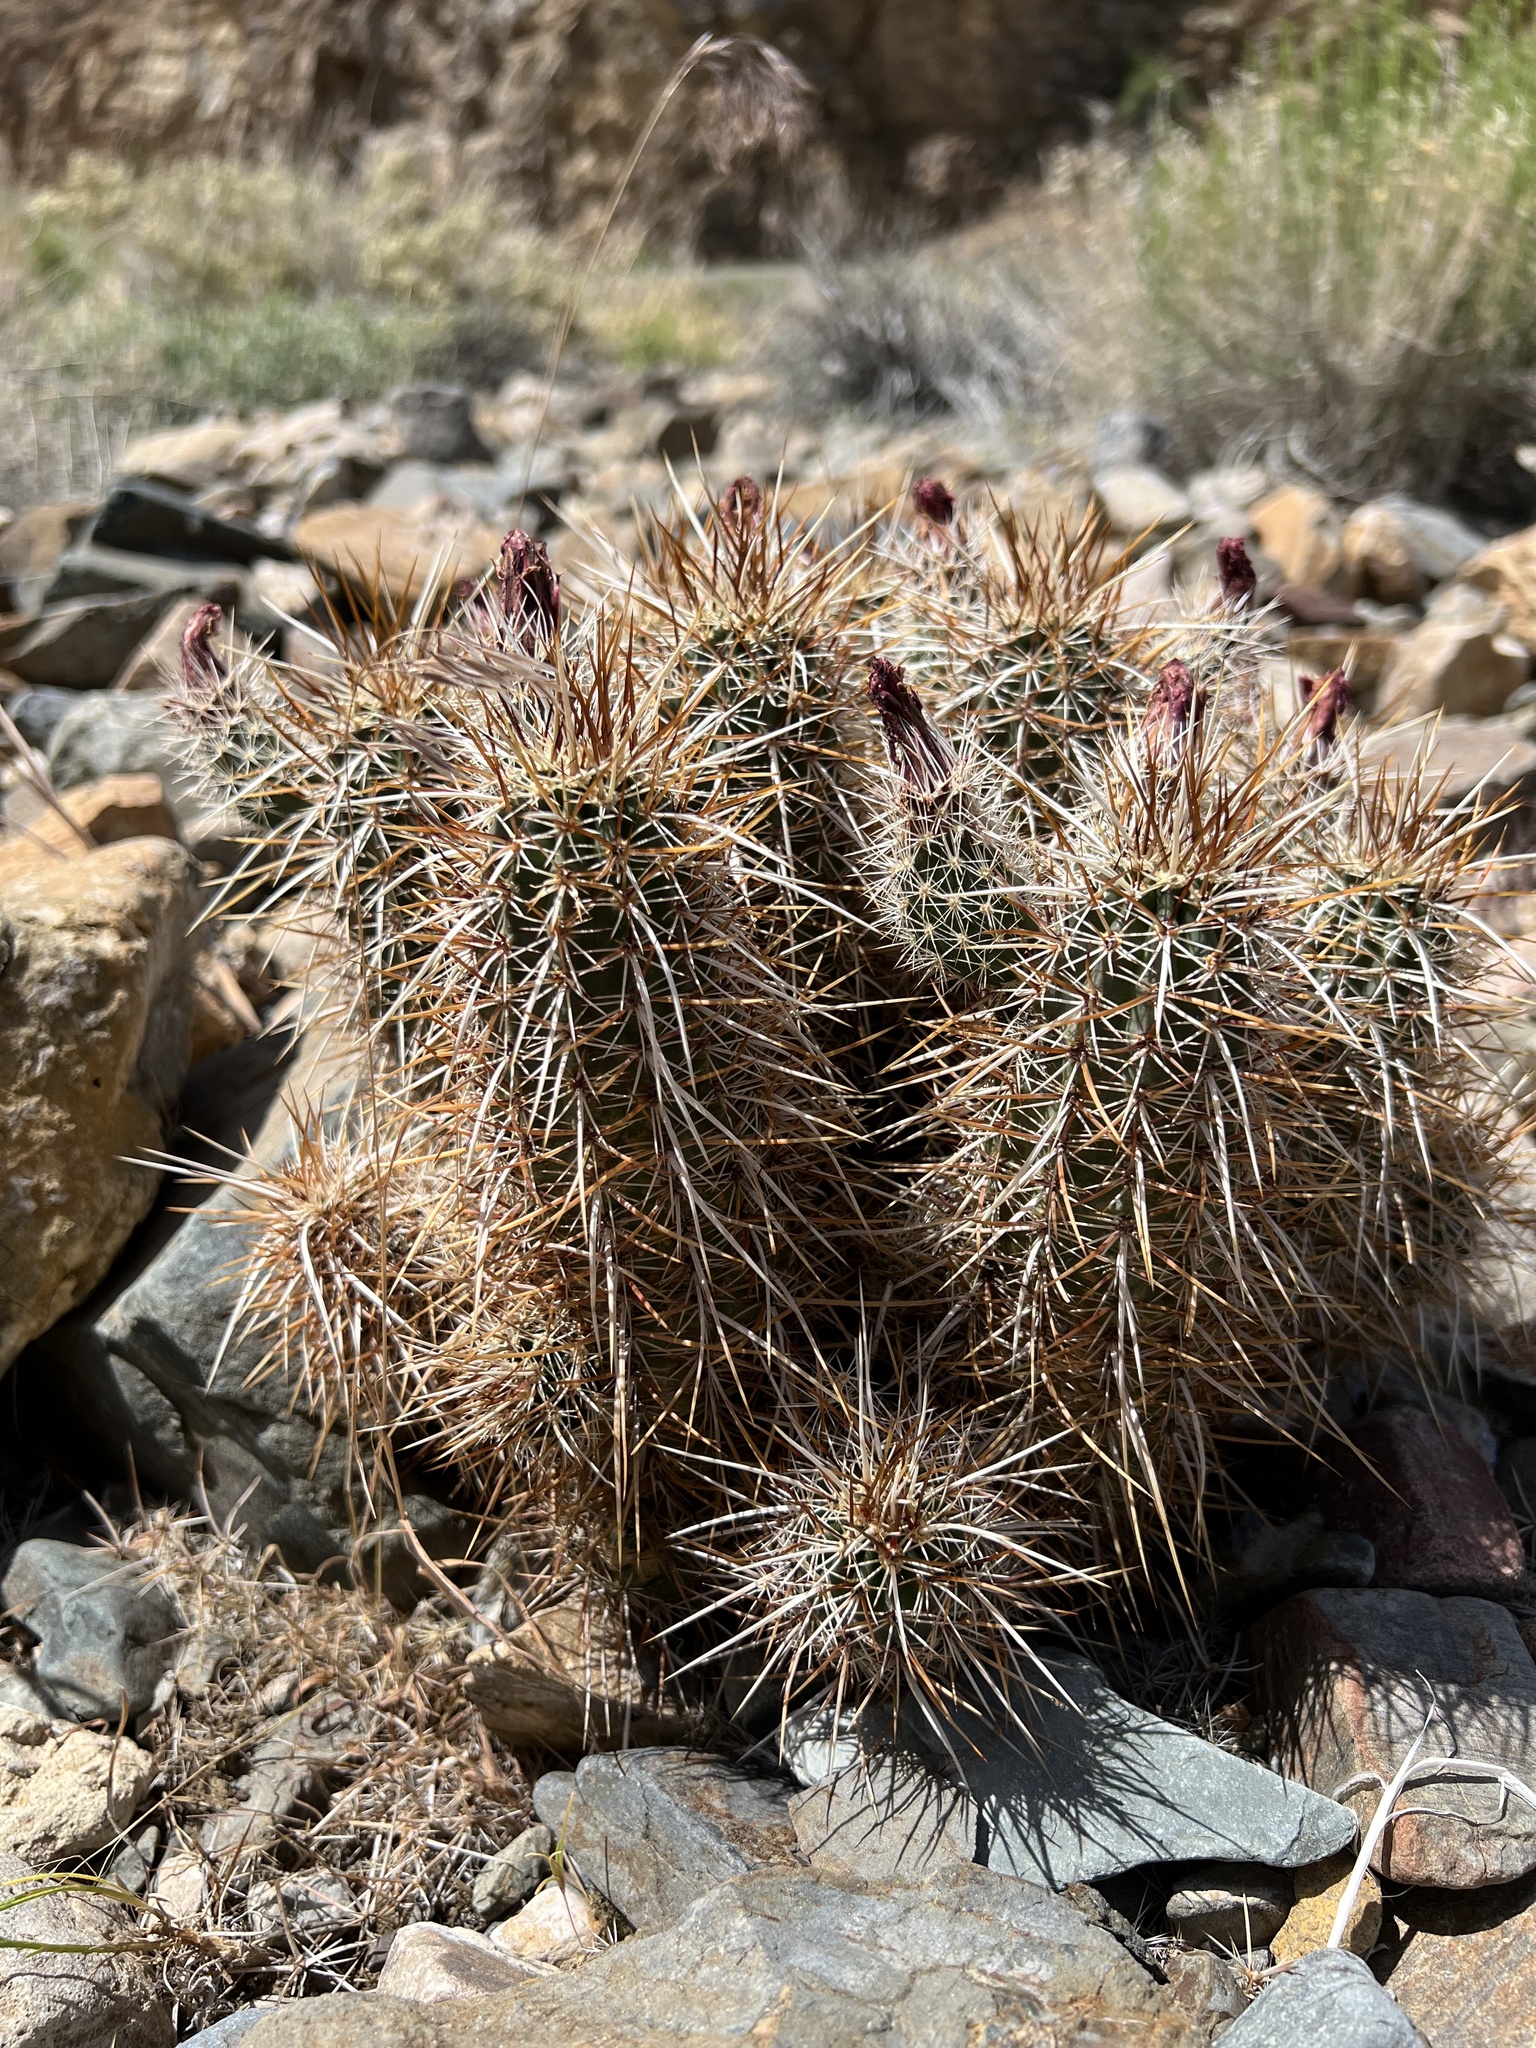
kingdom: Plantae
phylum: Tracheophyta
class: Magnoliopsida
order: Caryophyllales
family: Cactaceae
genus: Echinocereus
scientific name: Echinocereus engelmannii
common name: Engelmann's hedgehog cactus
